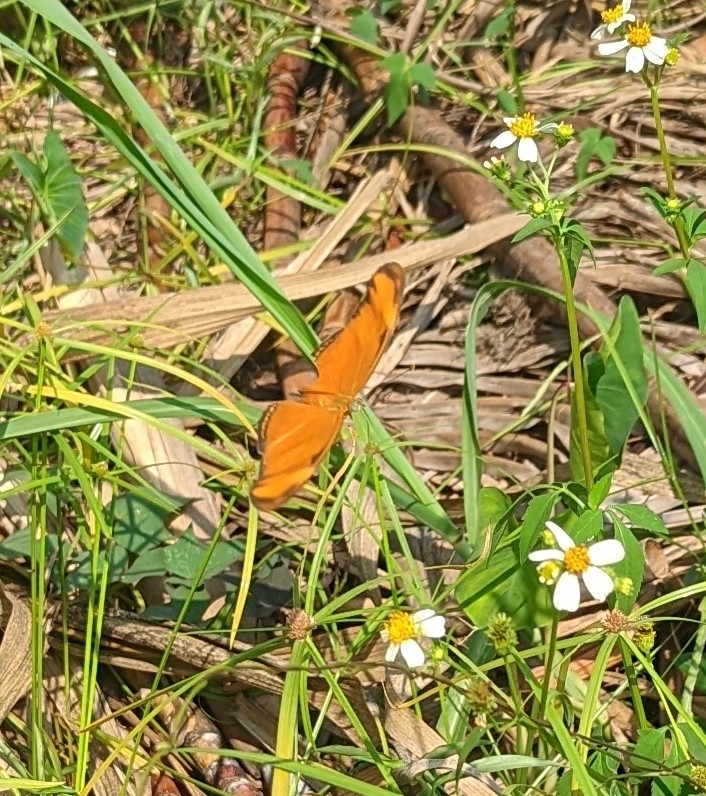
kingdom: Animalia
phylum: Arthropoda
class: Insecta
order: Lepidoptera
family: Nymphalidae
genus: Dryas
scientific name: Dryas iulia
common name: Flambeau
